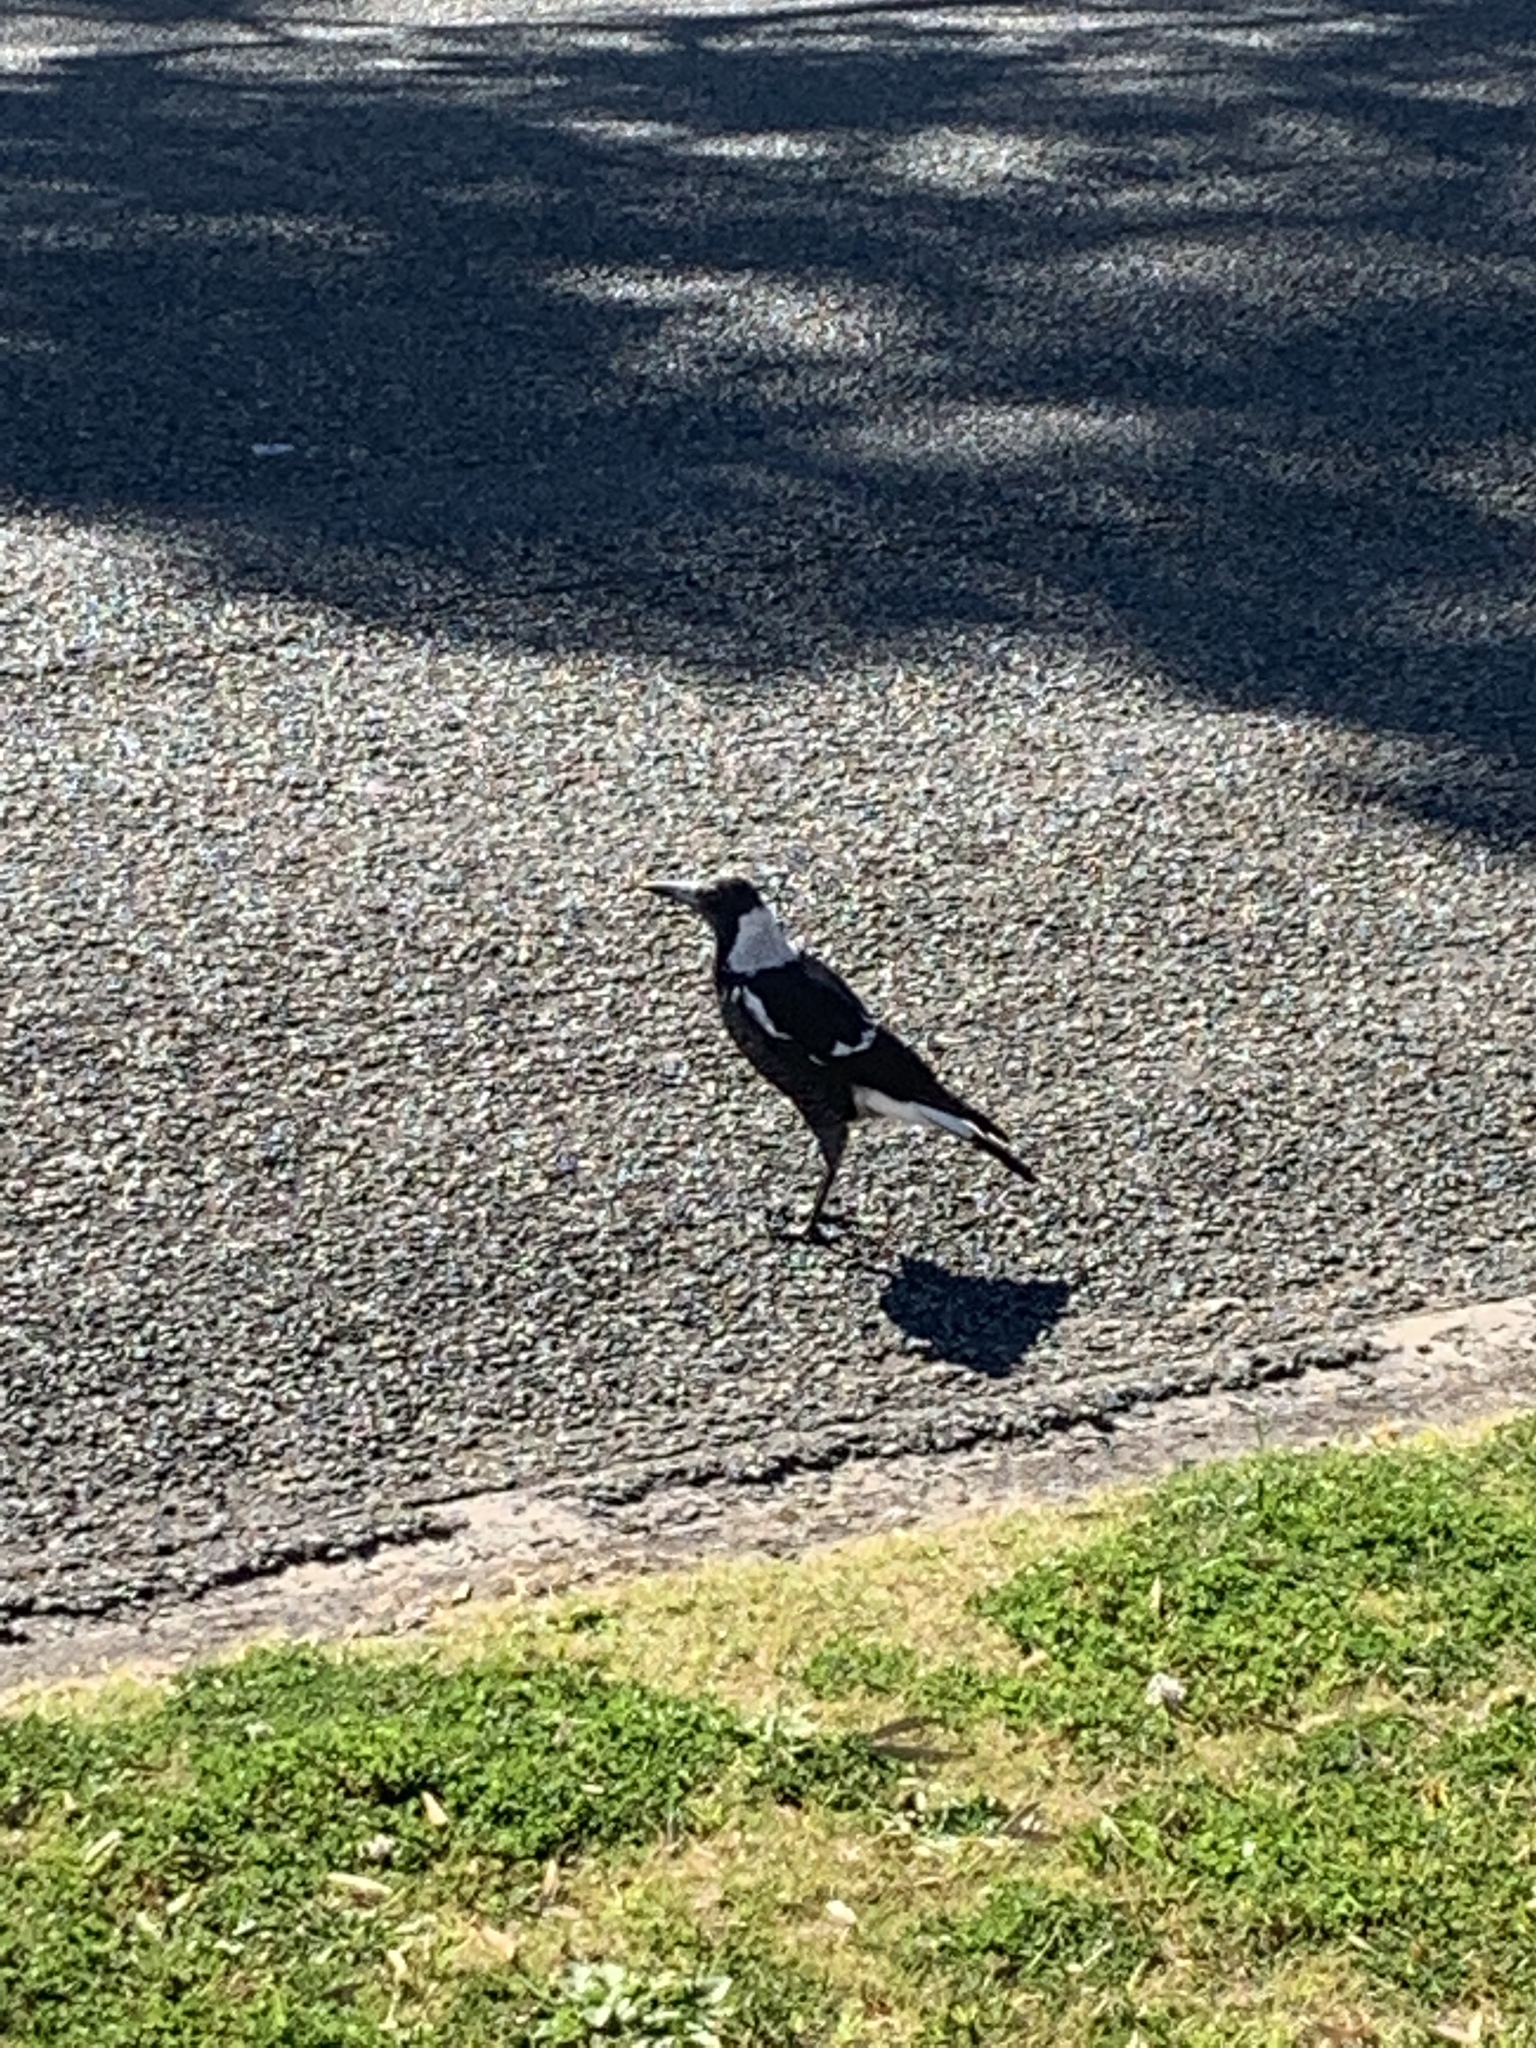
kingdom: Animalia
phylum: Chordata
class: Aves
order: Passeriformes
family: Cracticidae
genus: Gymnorhina
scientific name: Gymnorhina tibicen
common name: Australian magpie
